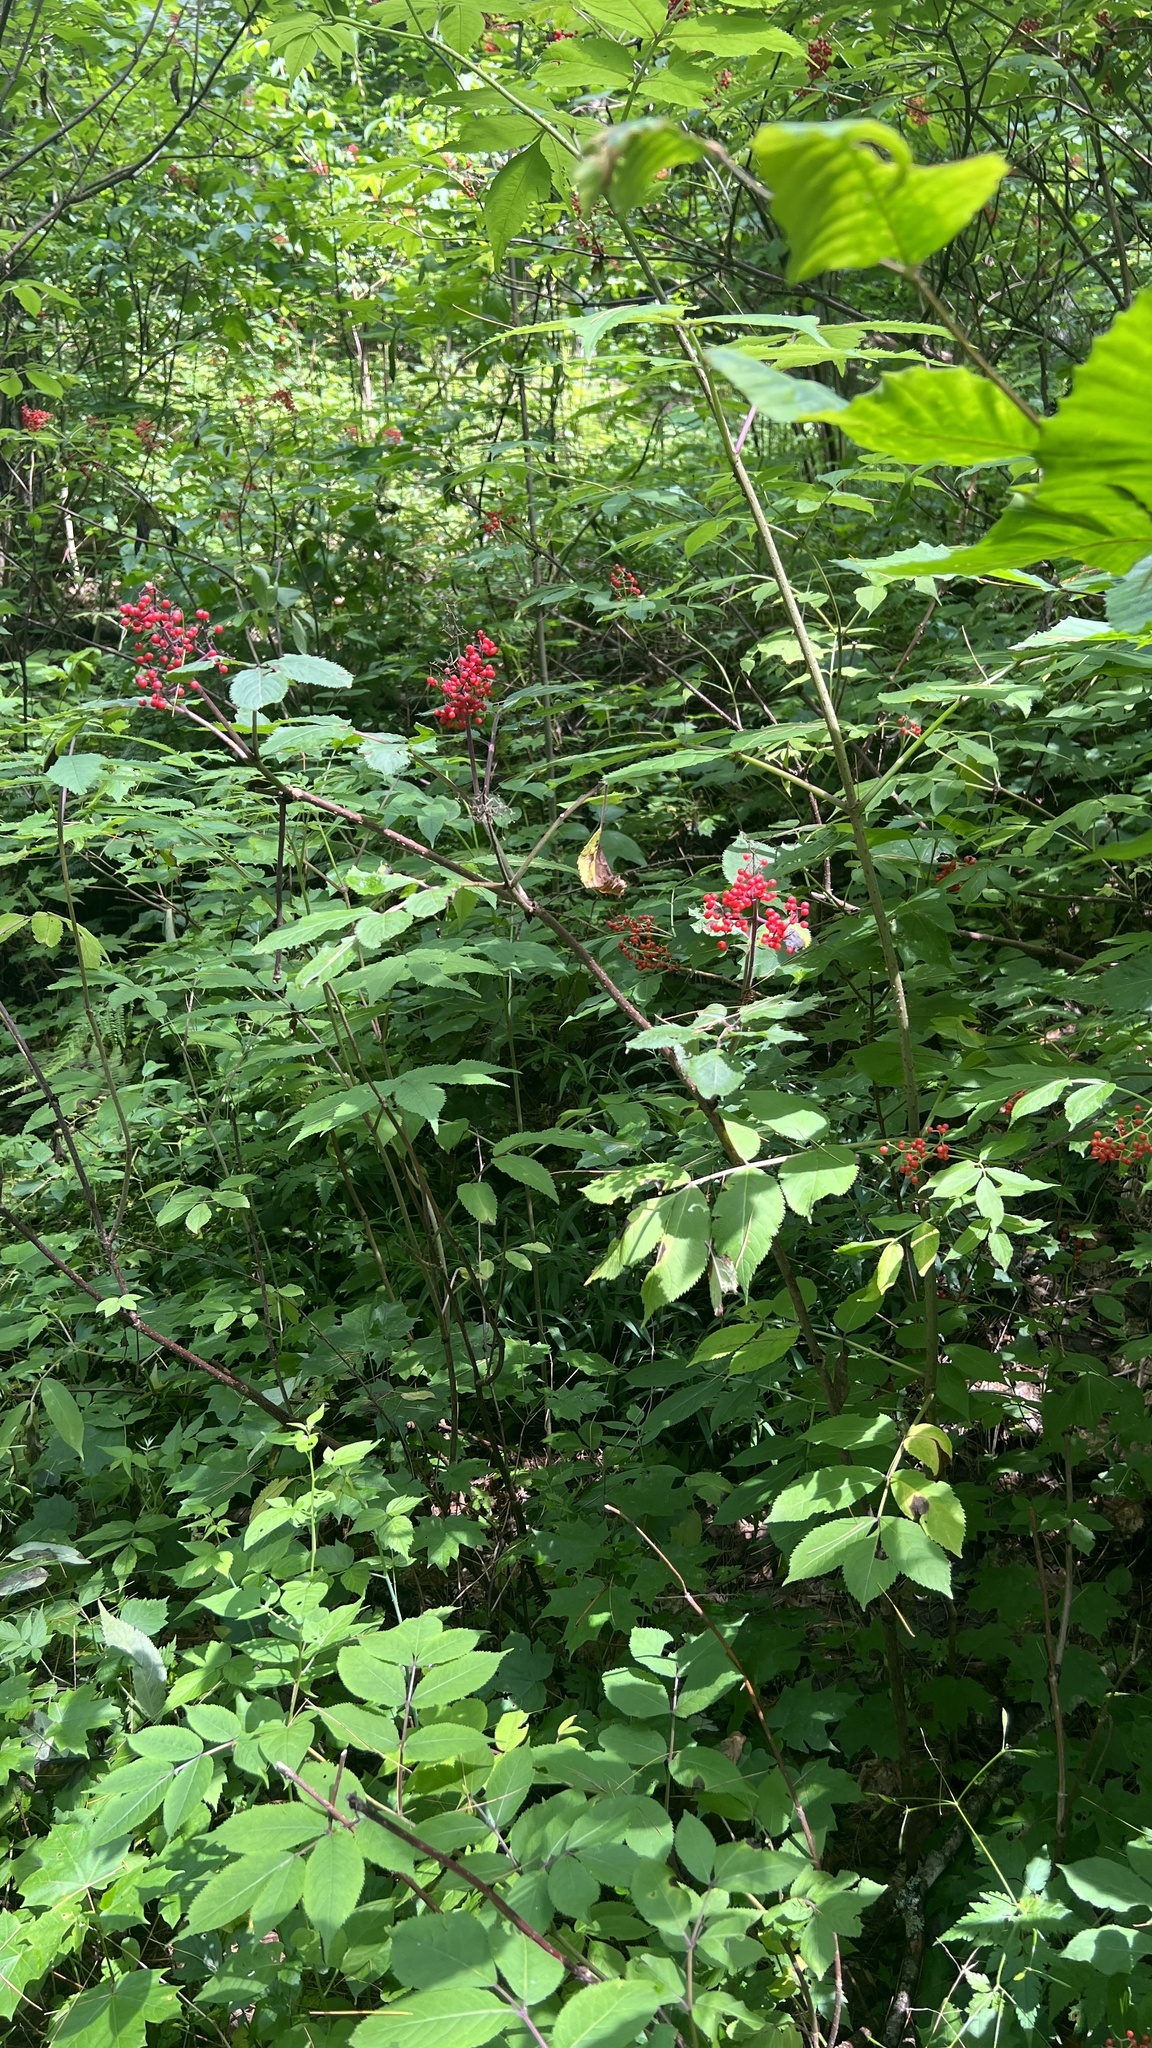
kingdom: Plantae
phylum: Tracheophyta
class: Magnoliopsida
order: Dipsacales
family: Viburnaceae
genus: Sambucus
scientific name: Sambucus racemosa
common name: Red-berried elder
